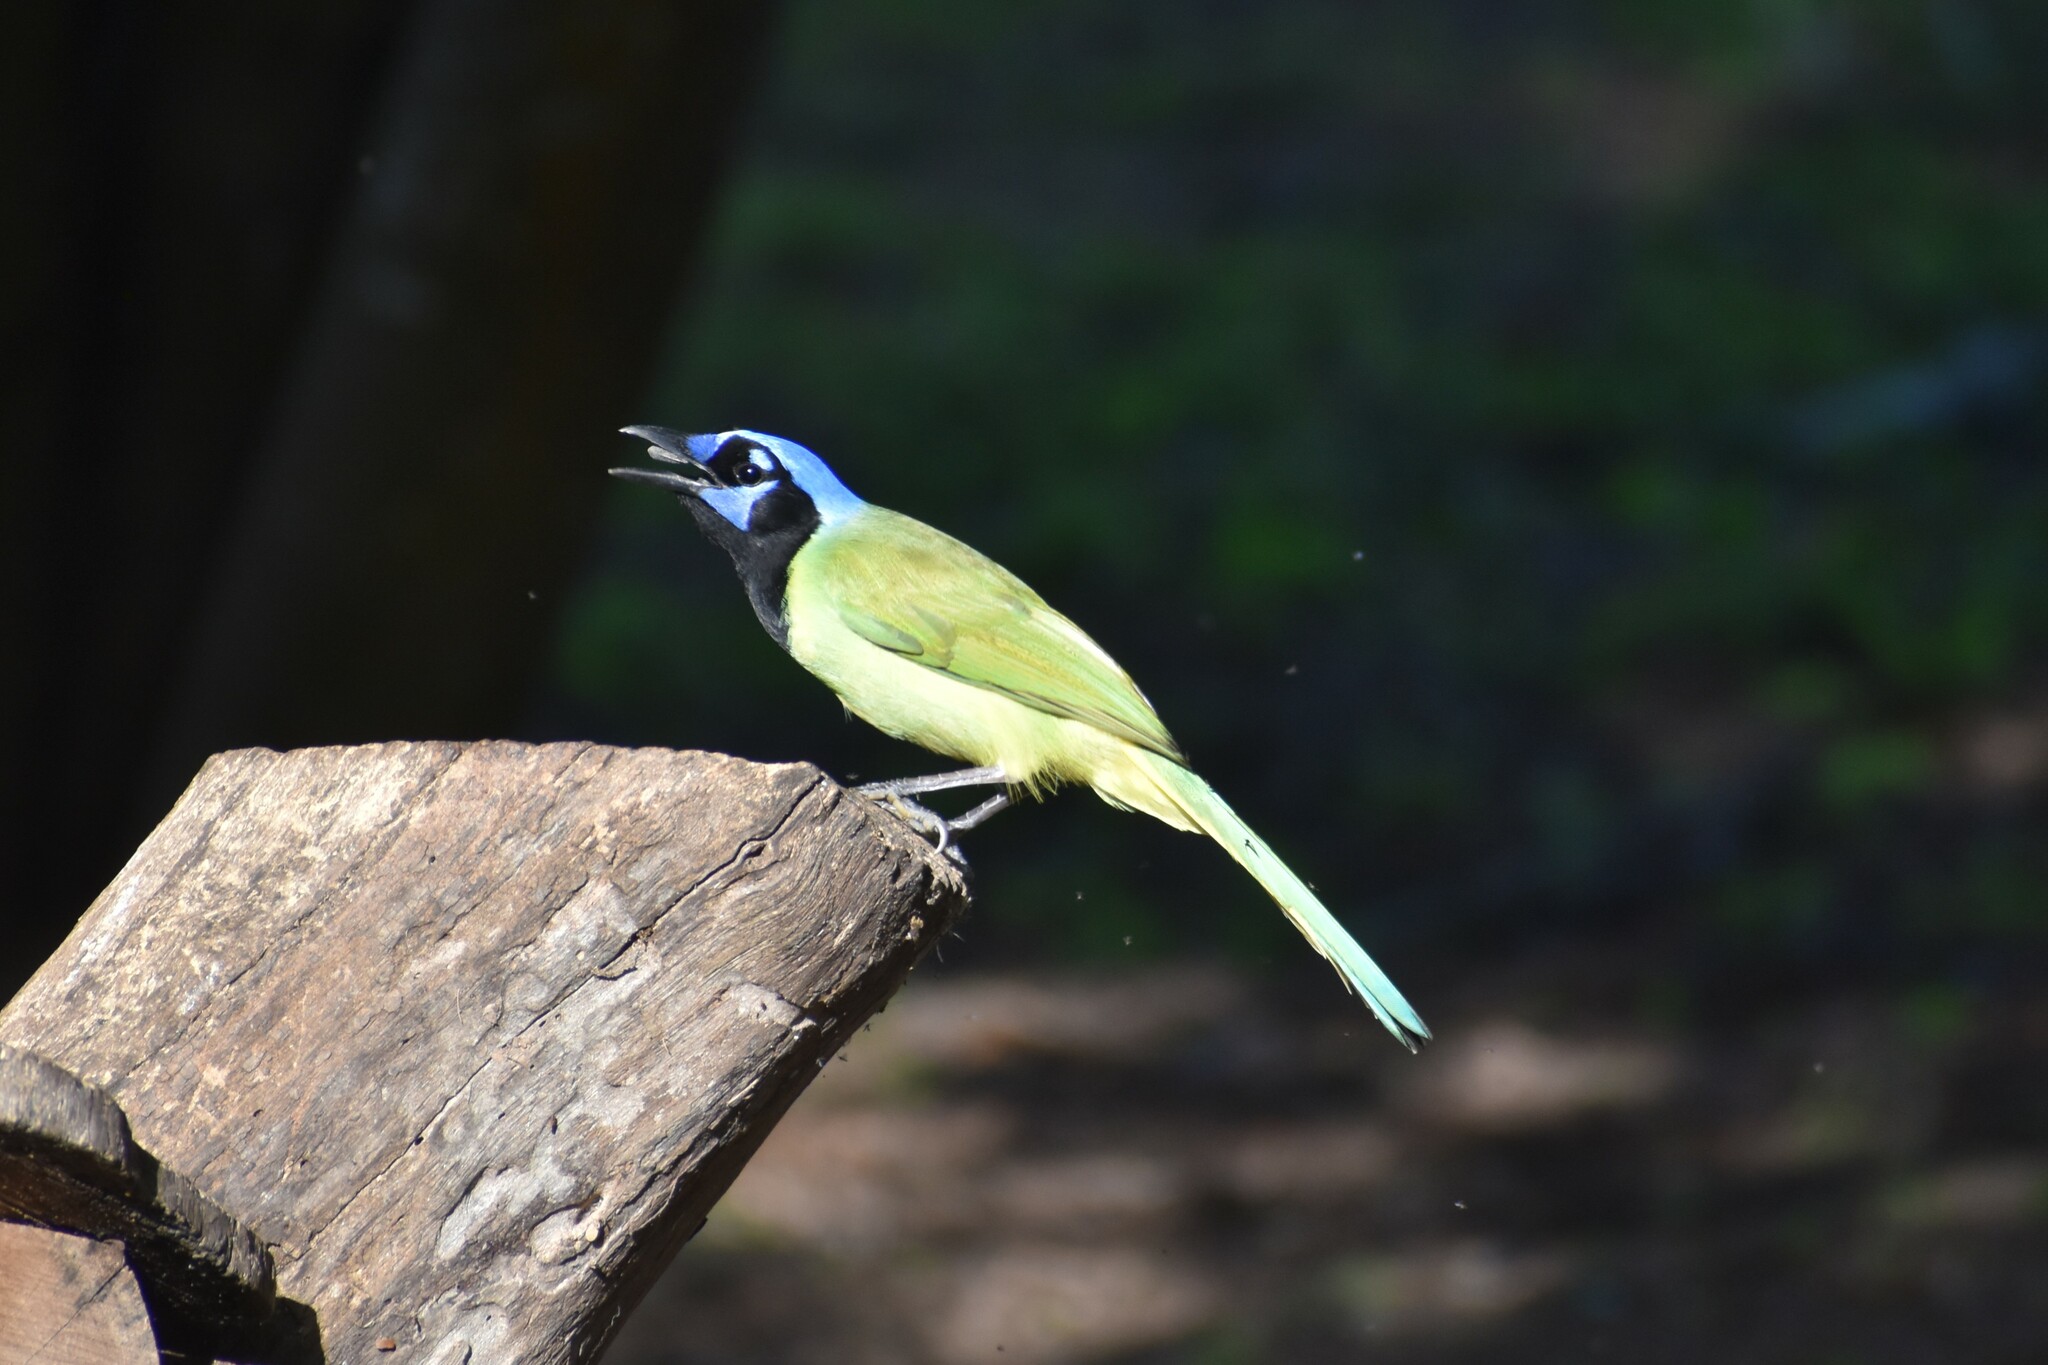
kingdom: Animalia
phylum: Chordata
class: Aves
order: Passeriformes
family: Corvidae
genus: Cyanocorax
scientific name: Cyanocorax yncas
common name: Green jay
